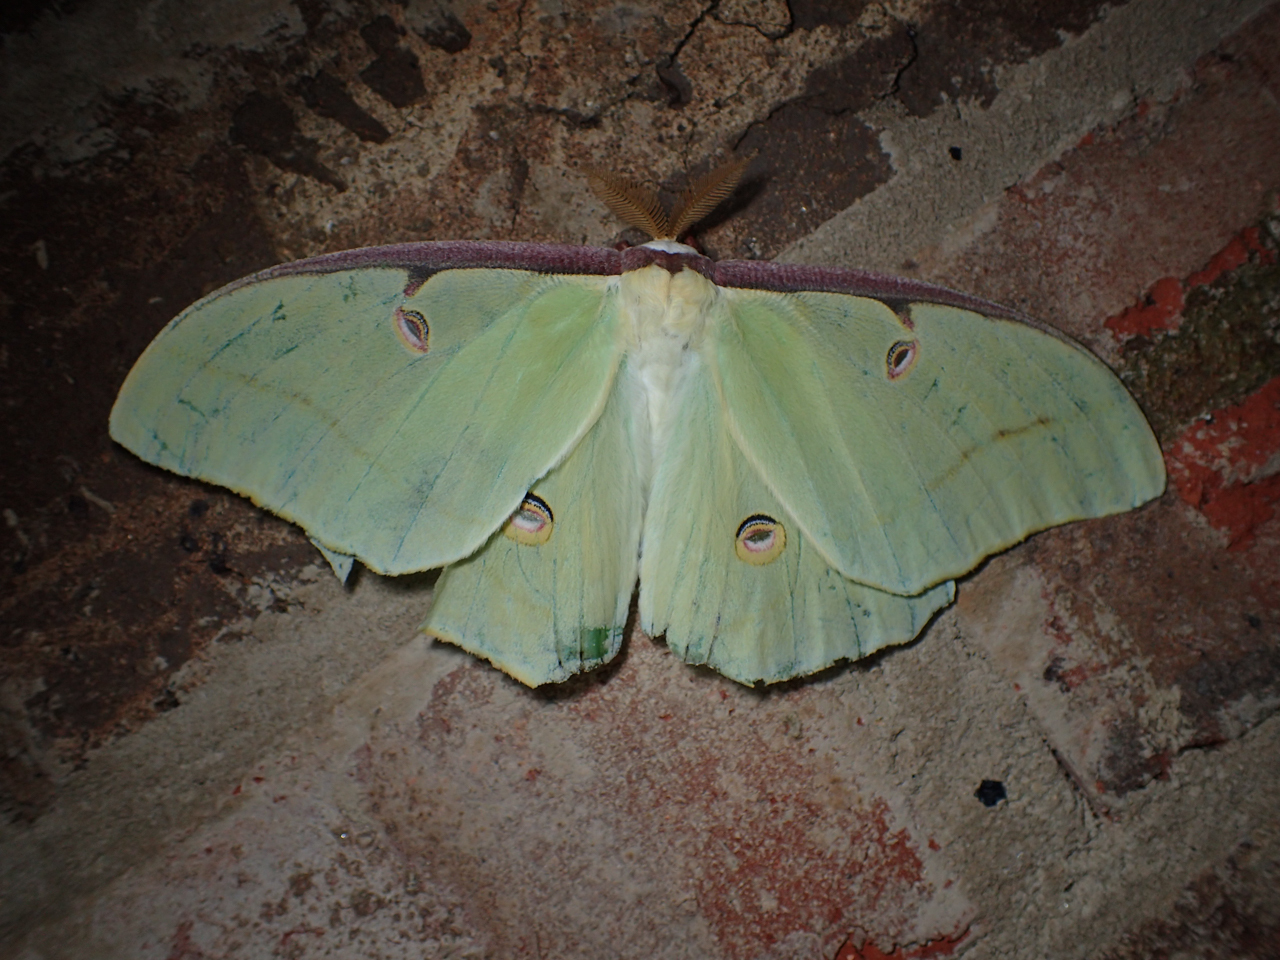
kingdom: Animalia
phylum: Arthropoda
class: Insecta
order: Lepidoptera
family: Saturniidae
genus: Actias
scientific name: Actias luna
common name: Luna moth
